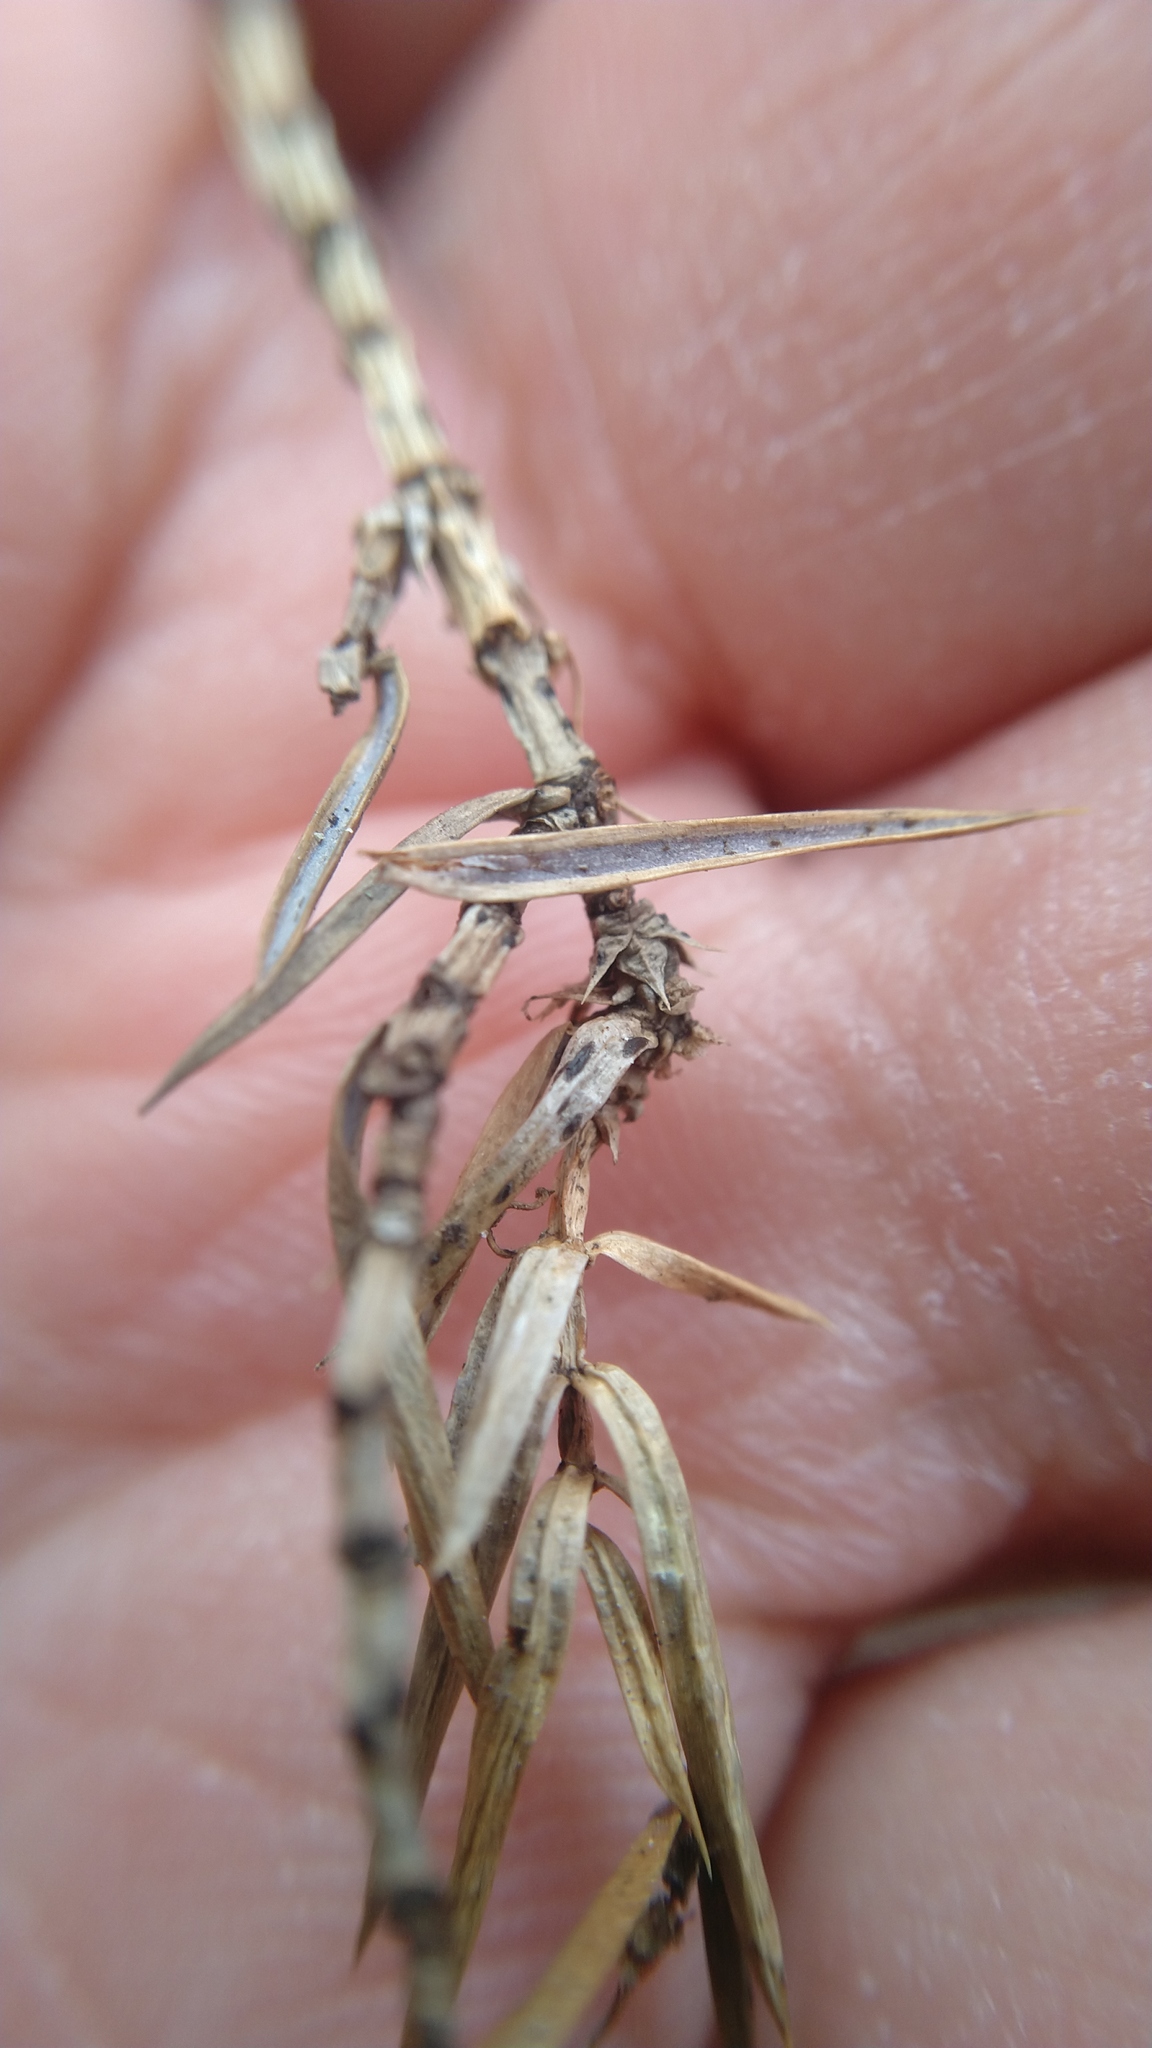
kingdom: Fungi
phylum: Ascomycota
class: Leotiomycetes
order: Rhytismatales
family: Rhytismataceae
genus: Lophodermium
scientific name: Lophodermium juniperinum
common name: Juniper split
